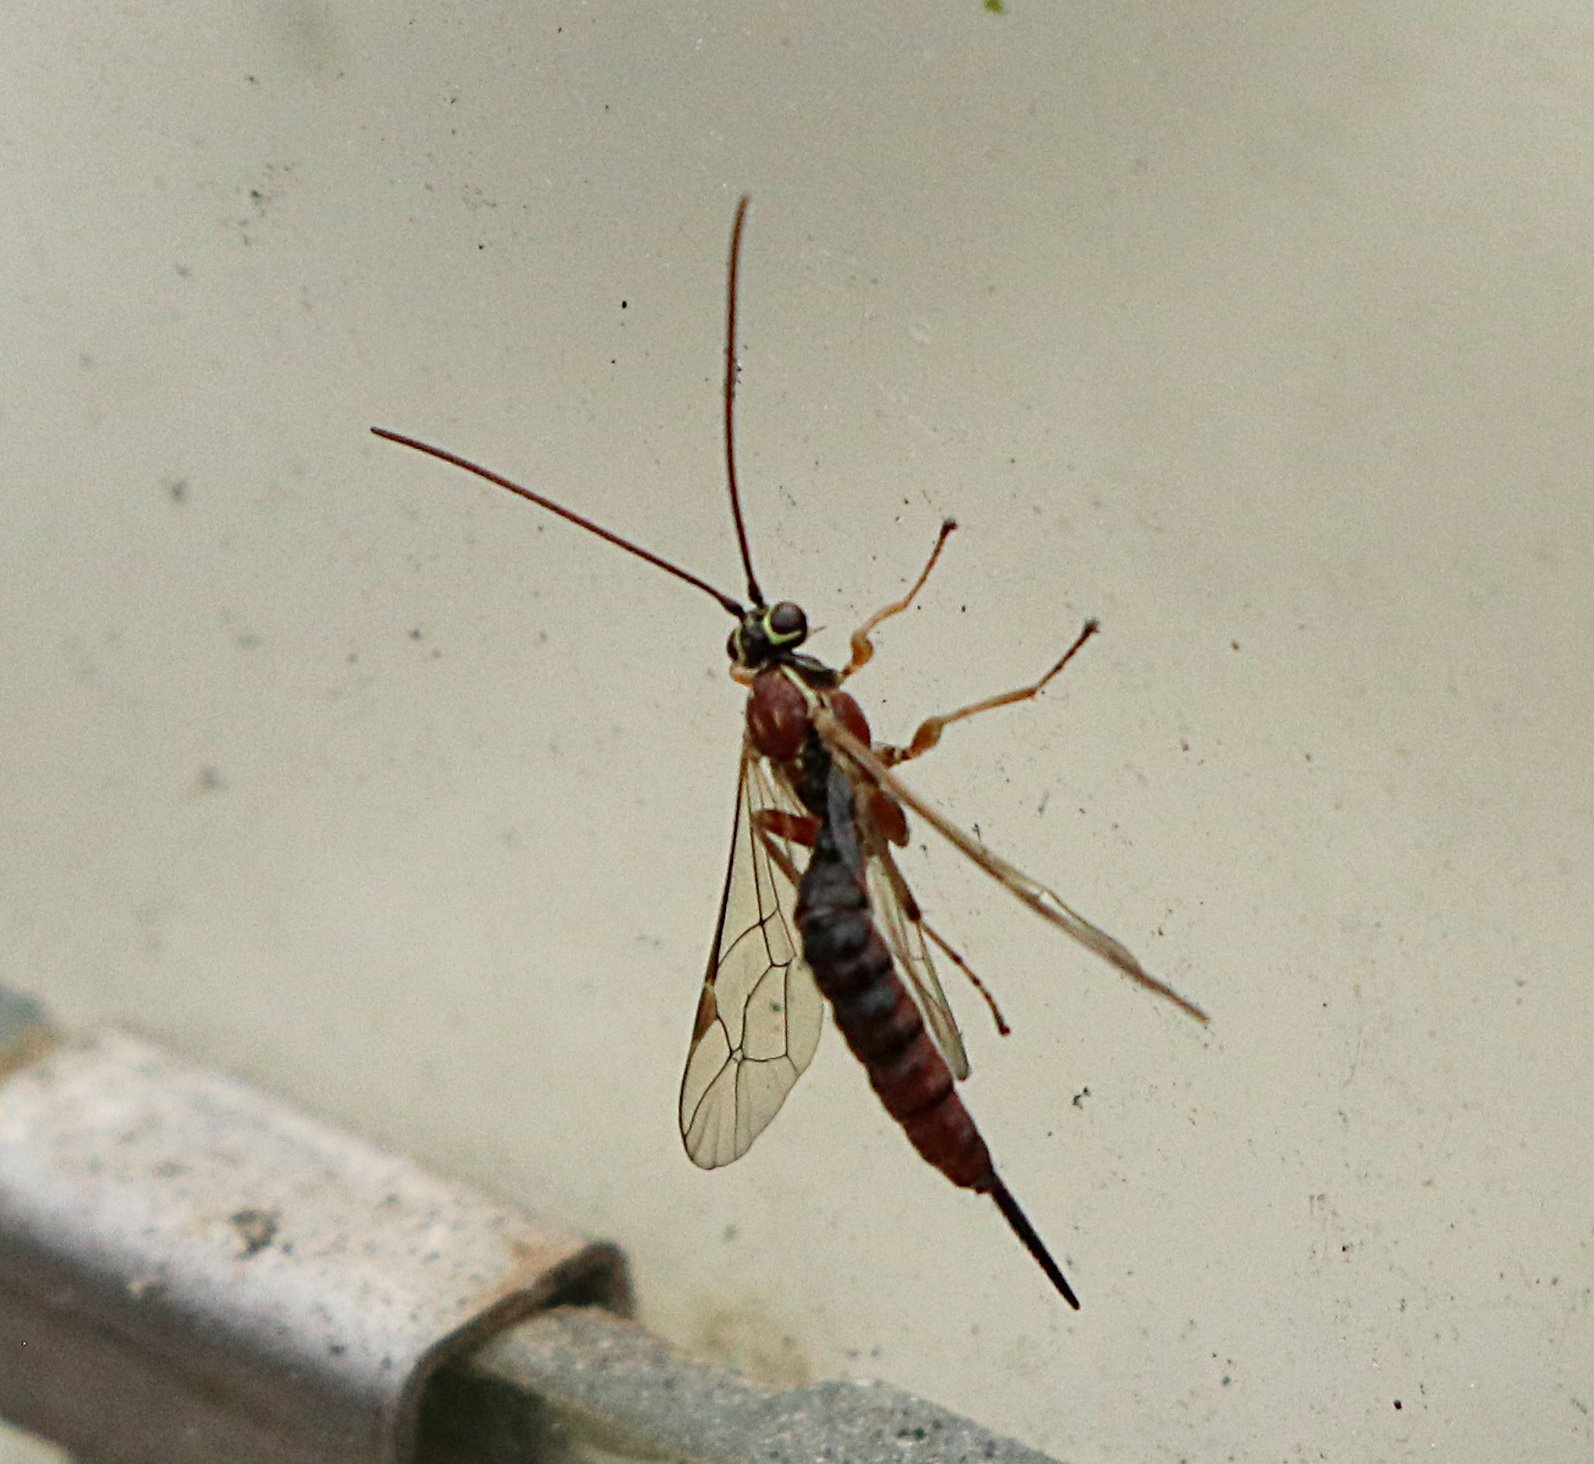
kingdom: Animalia
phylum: Arthropoda
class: Insecta
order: Hymenoptera
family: Ichneumonidae
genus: Tromatobia
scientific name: Tromatobia lineatoria
